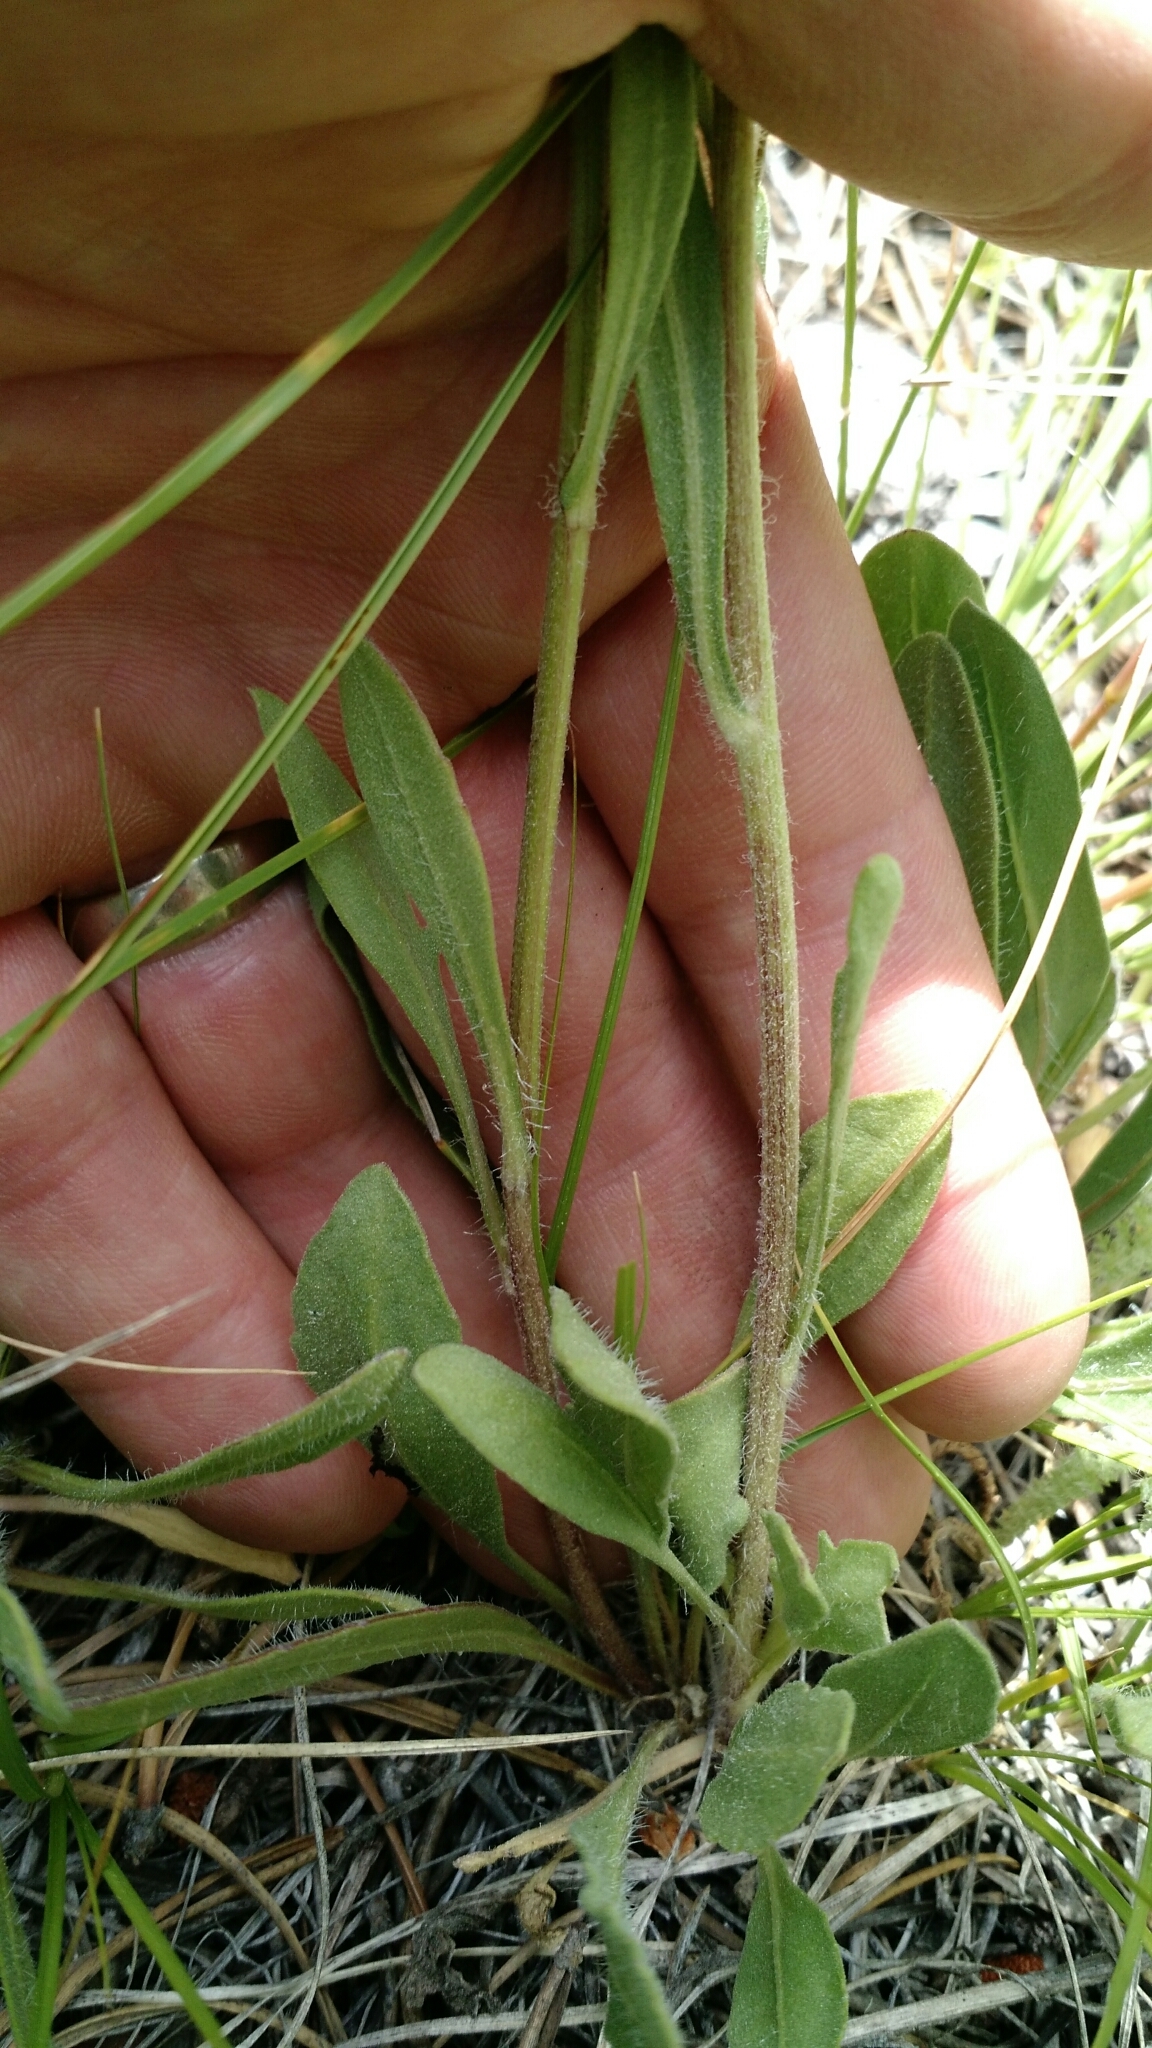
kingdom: Plantae
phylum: Tracheophyta
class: Magnoliopsida
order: Asterales
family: Asteraceae
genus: Gaillardia
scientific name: Gaillardia aristata
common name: Blanket-flower
